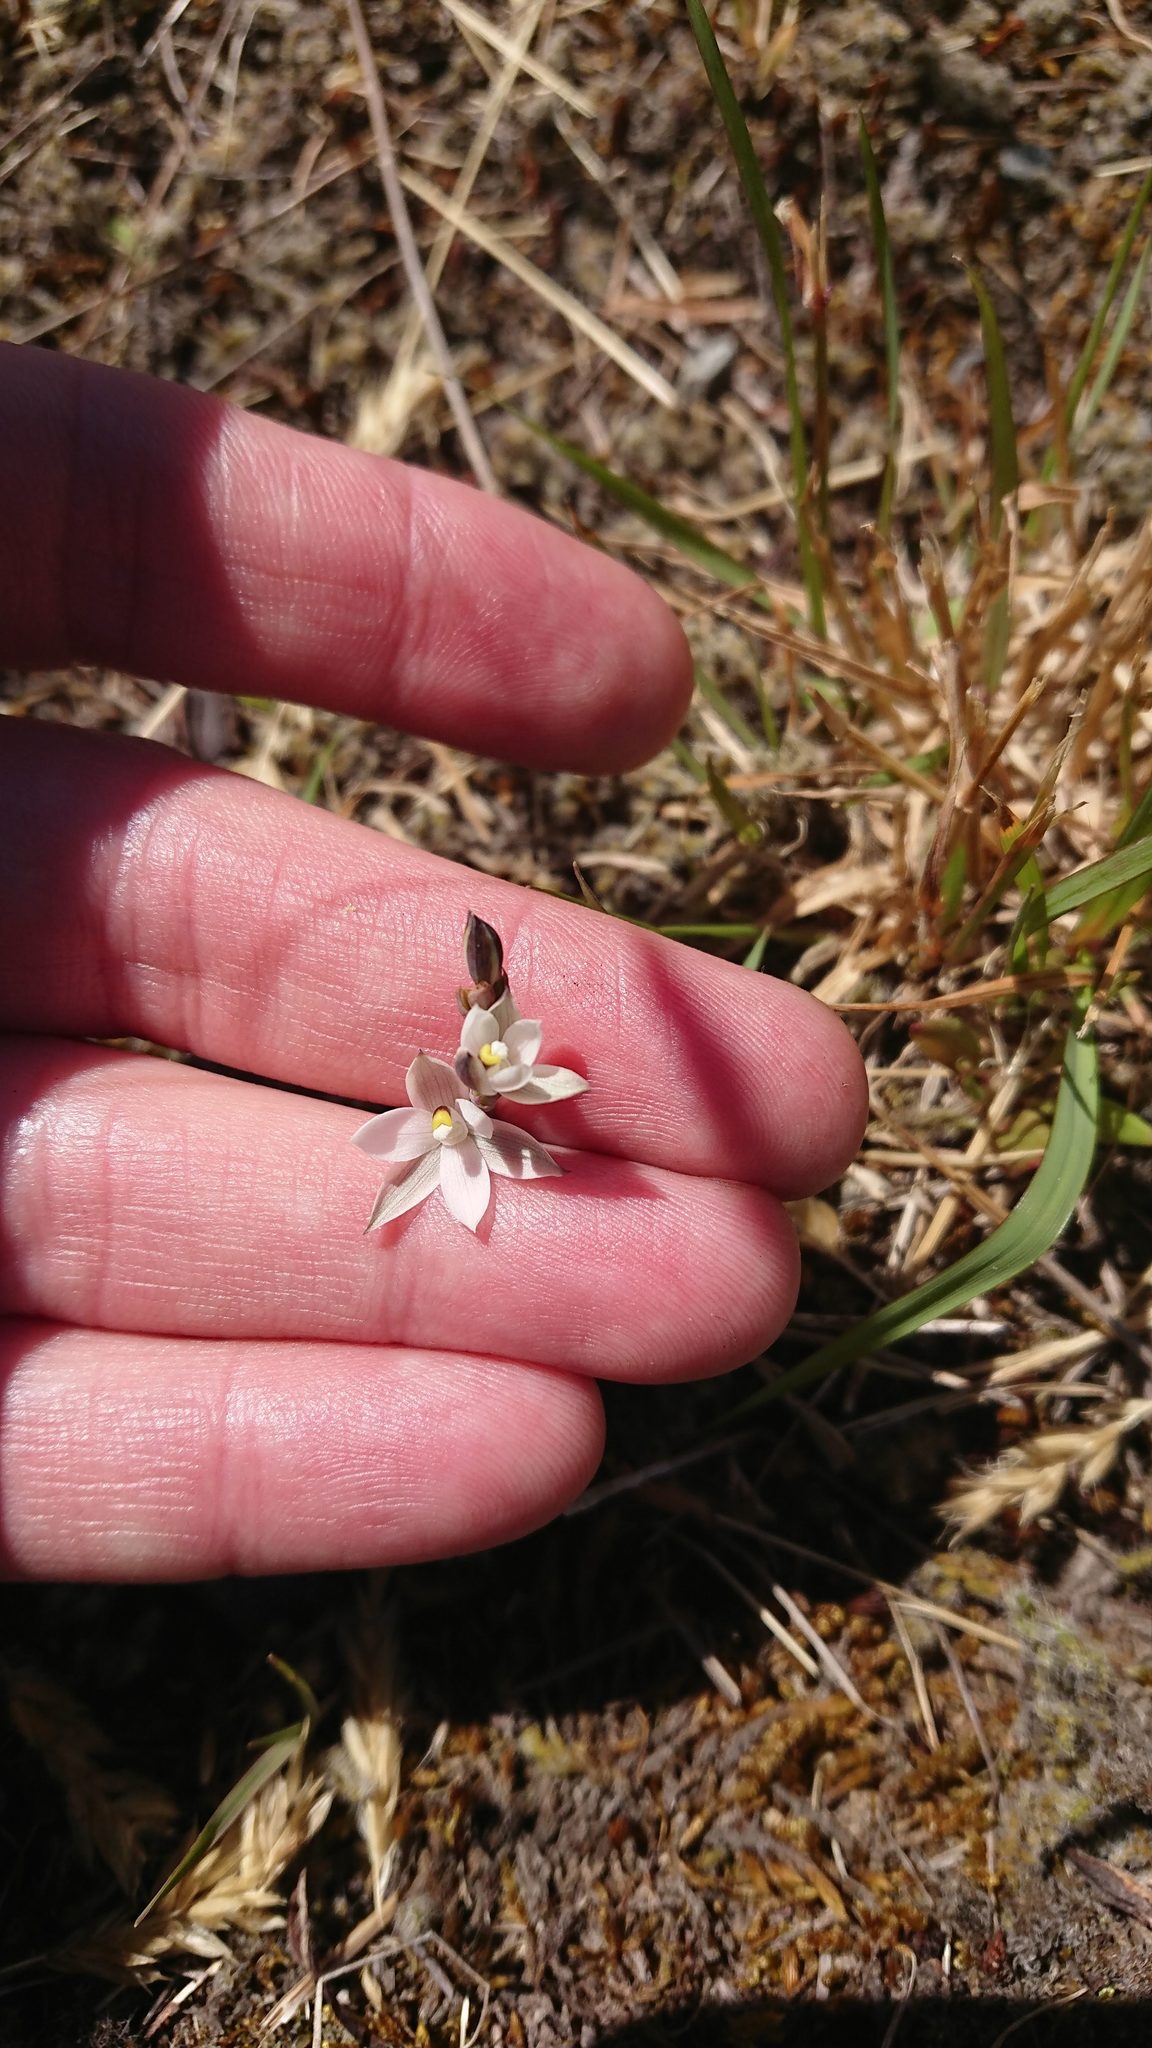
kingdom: Plantae
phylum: Tracheophyta
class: Liliopsida
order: Asparagales
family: Orchidaceae
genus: Thelymitra
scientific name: Thelymitra longifolia
